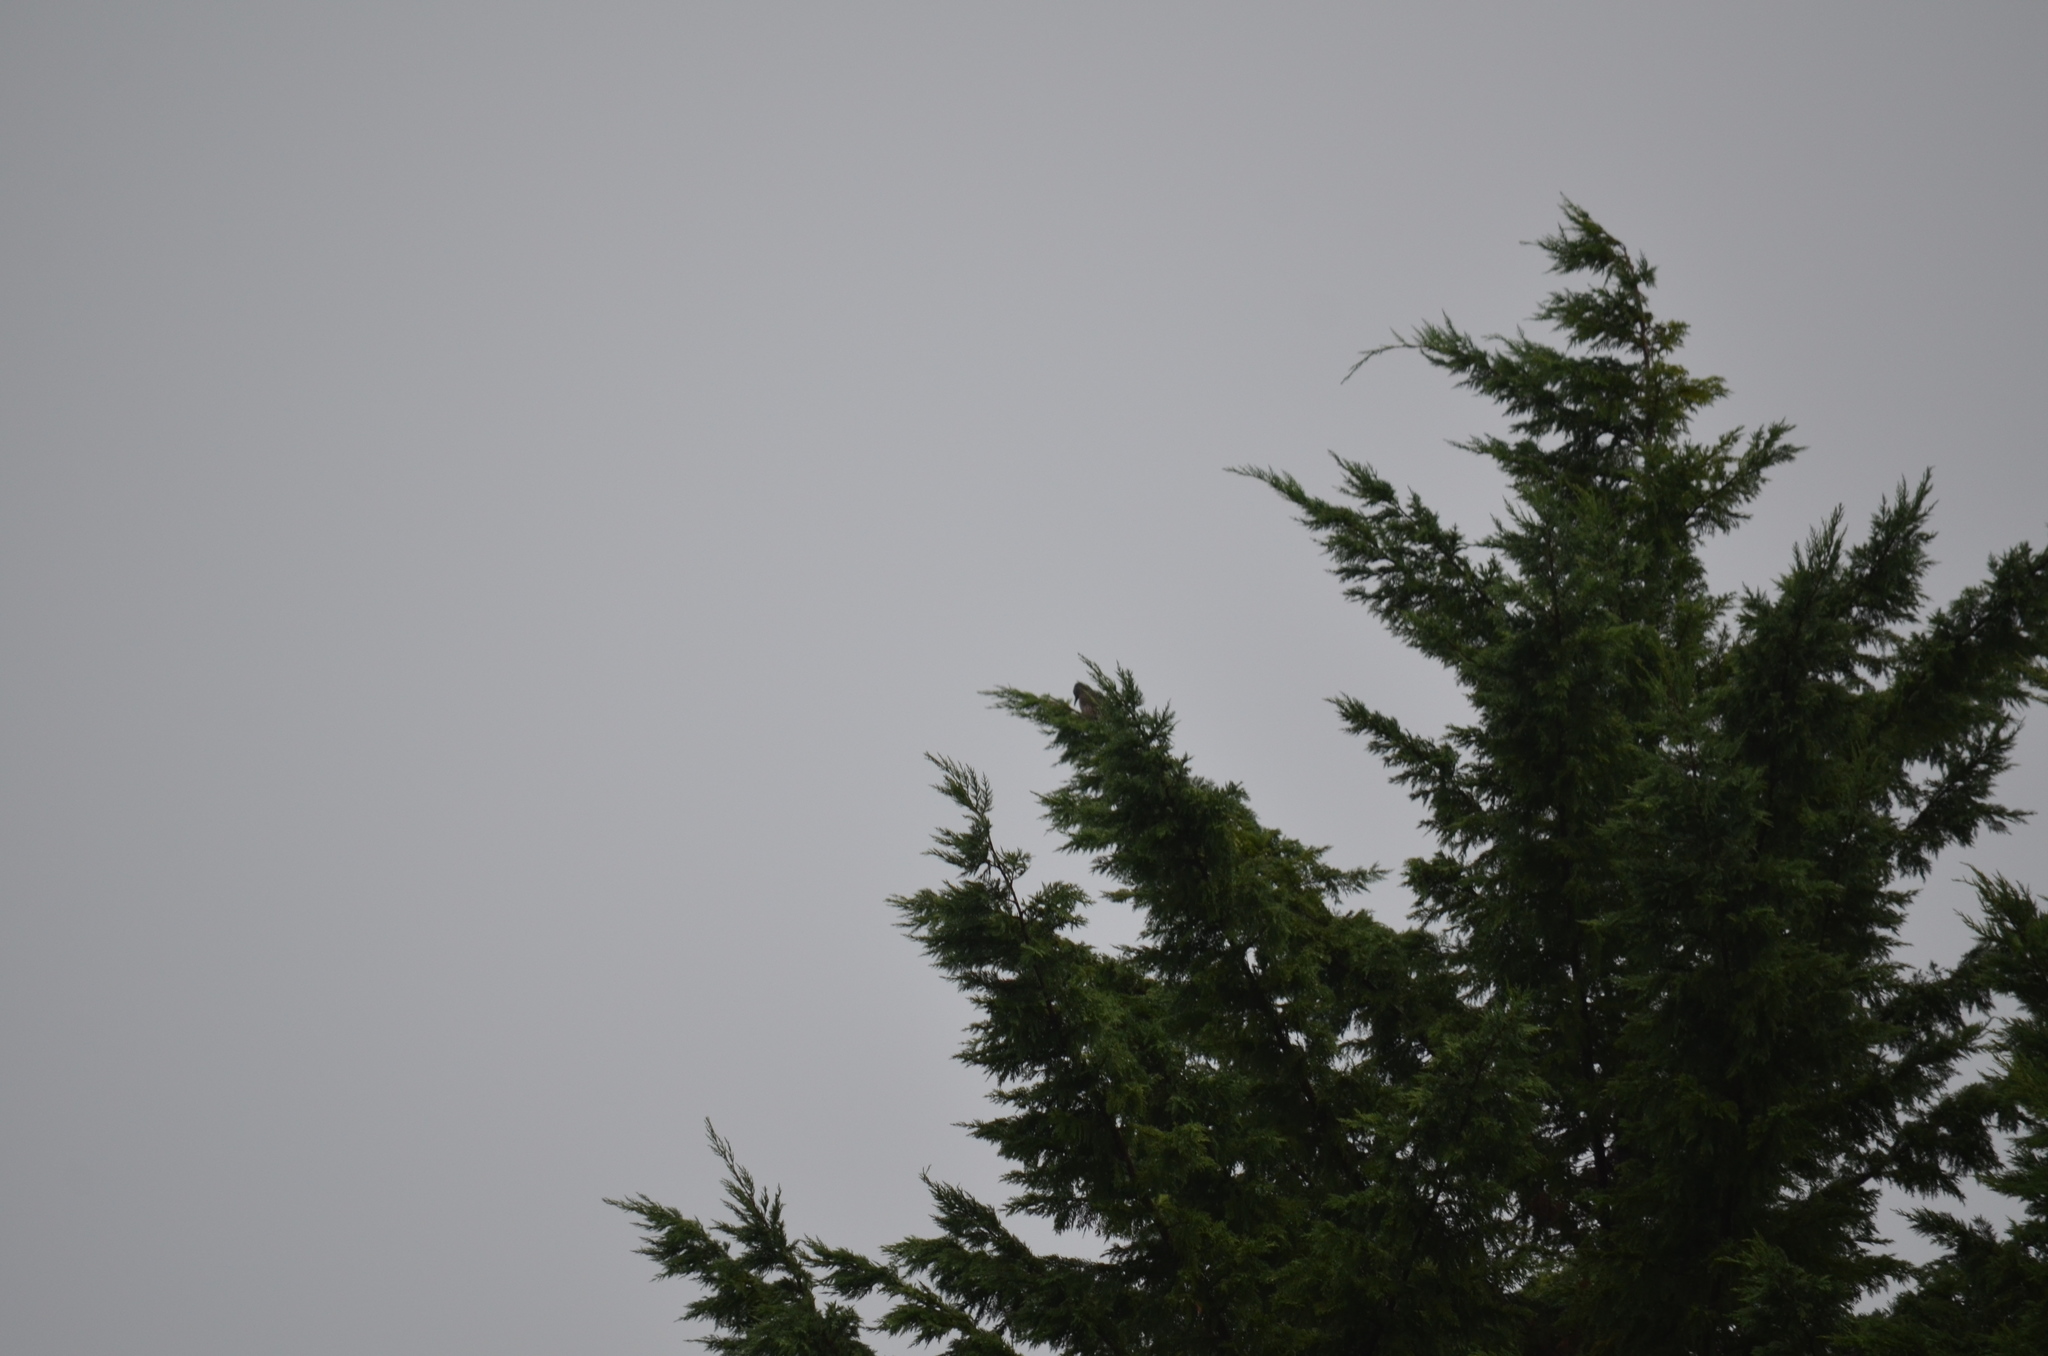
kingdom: Animalia
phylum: Chordata
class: Aves
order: Piciformes
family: Picidae
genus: Colaptes
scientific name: Colaptes auratus
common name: Northern flicker
